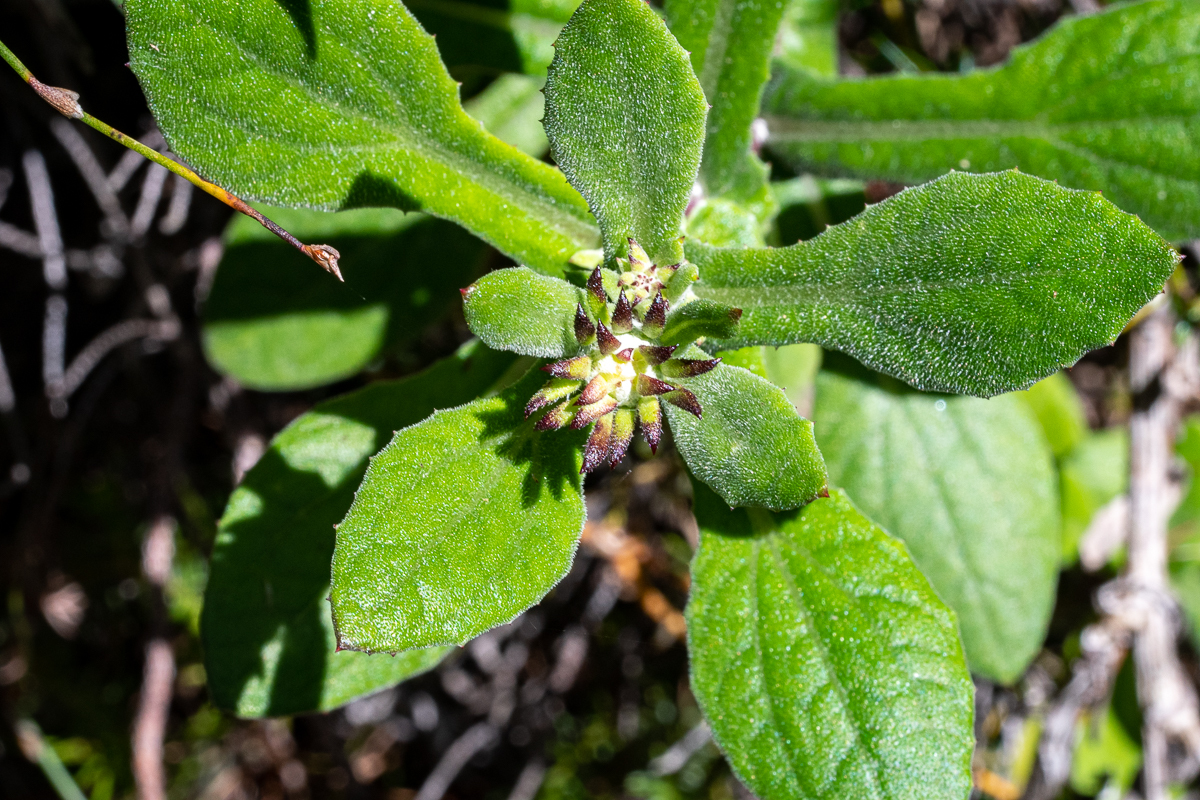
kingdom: Plantae
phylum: Tracheophyta
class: Magnoliopsida
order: Asterales
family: Asteraceae
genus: Arctotis
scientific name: Arctotis scabra
